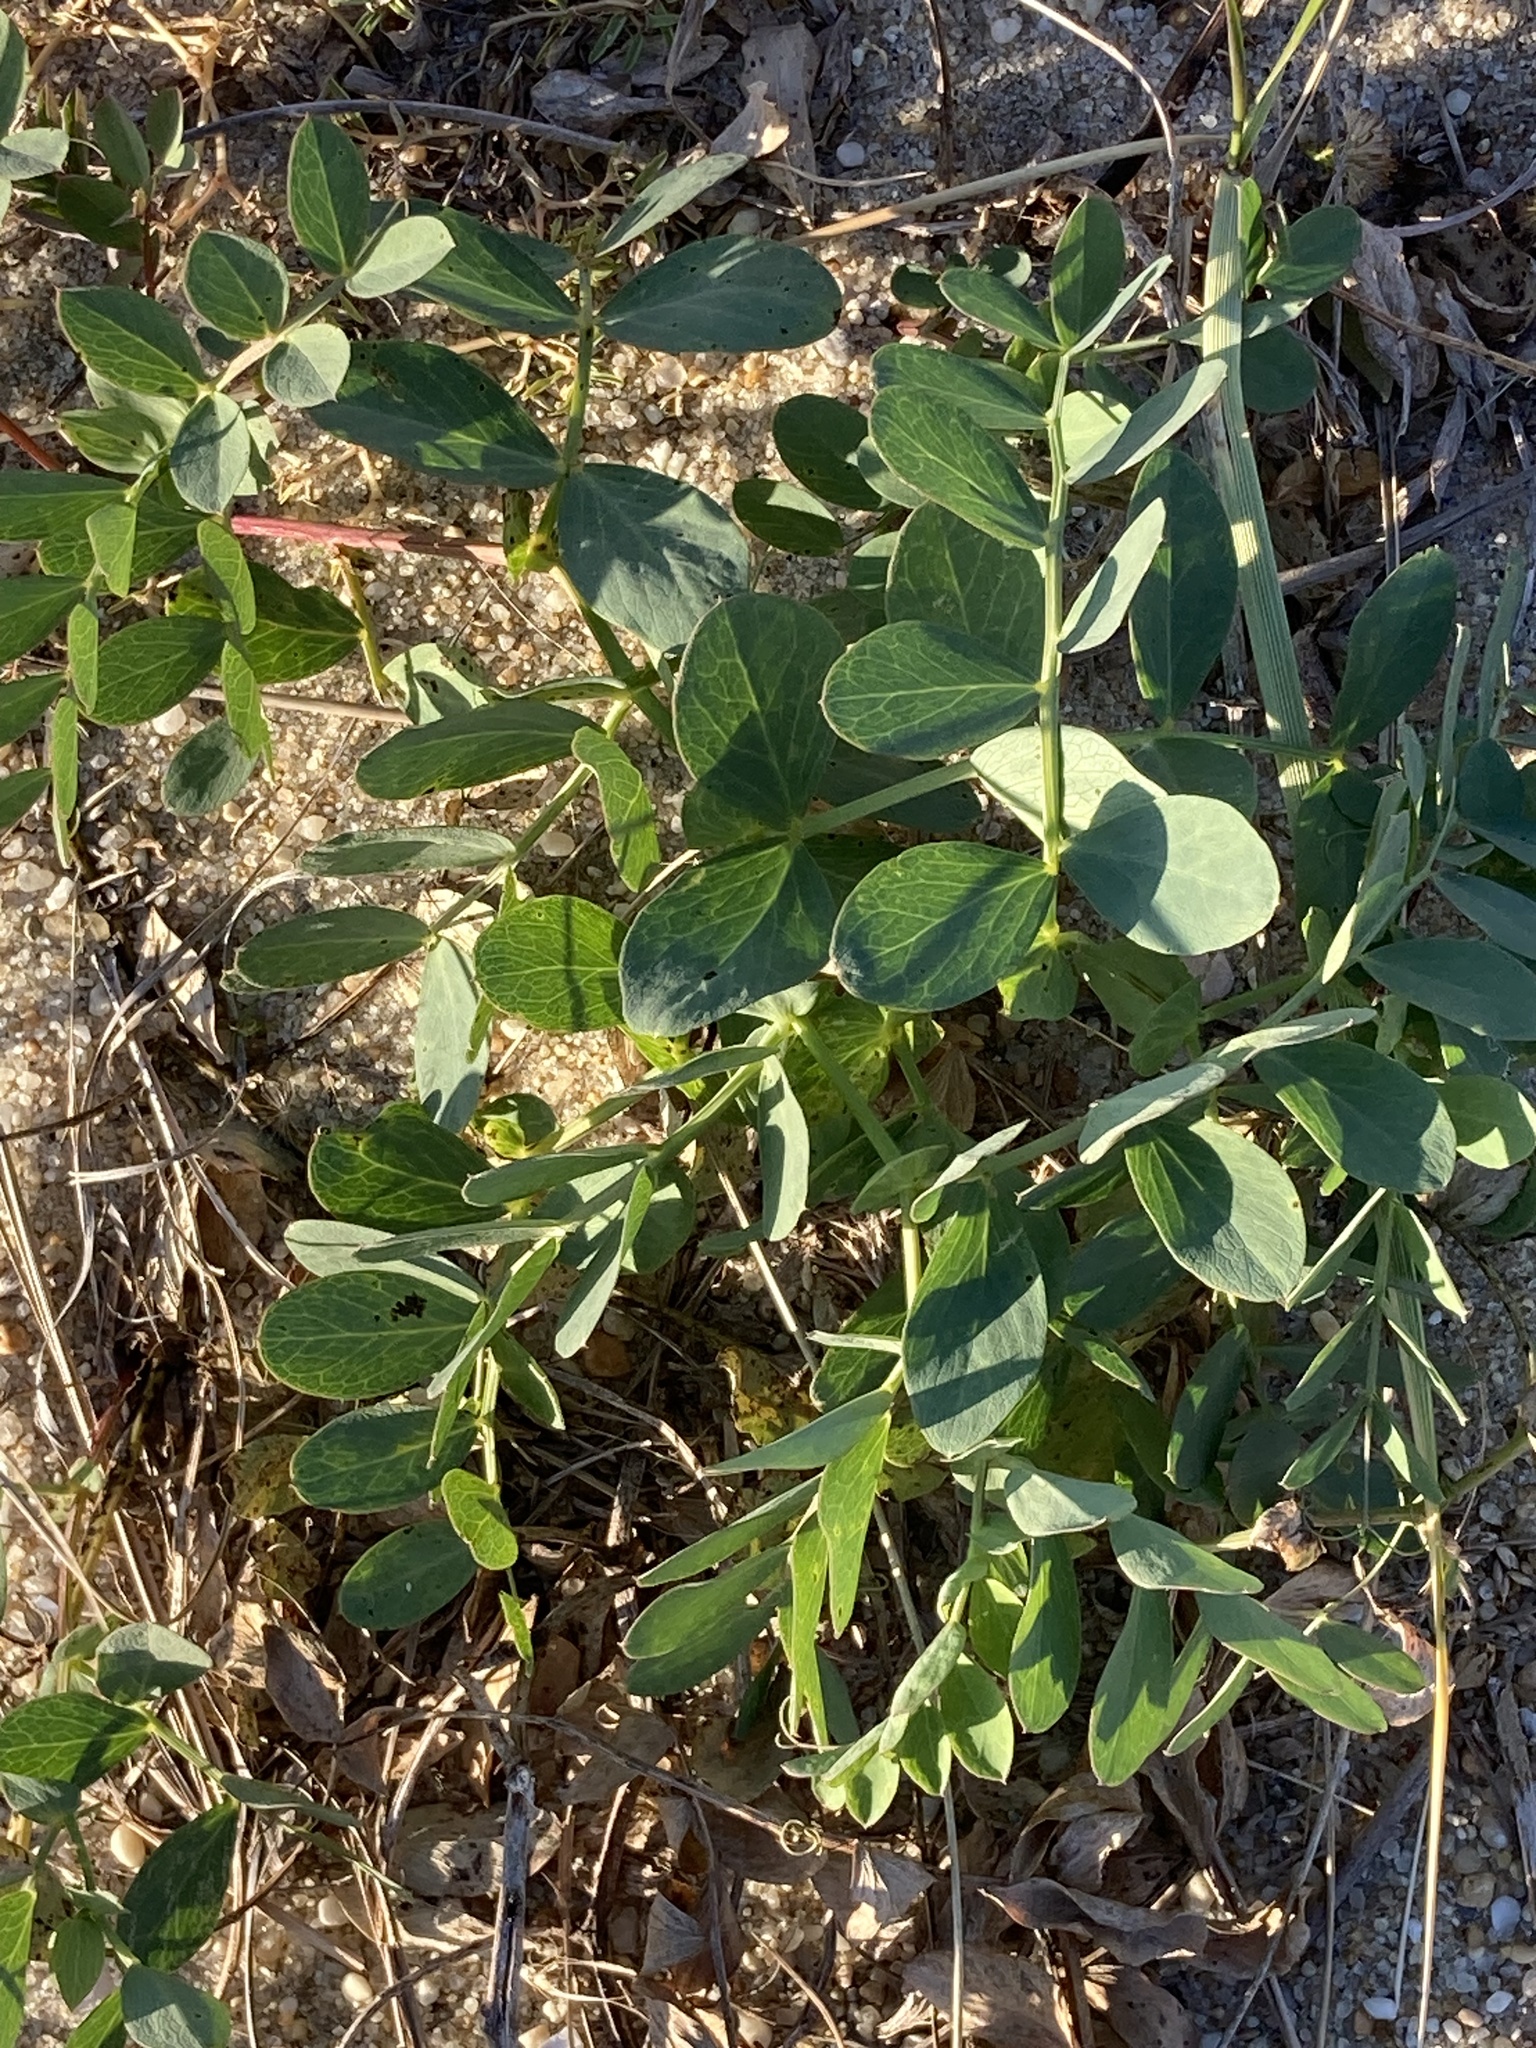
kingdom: Plantae
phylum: Tracheophyta
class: Magnoliopsida
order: Fabales
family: Fabaceae
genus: Lathyrus
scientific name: Lathyrus japonicus
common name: Sea pea
